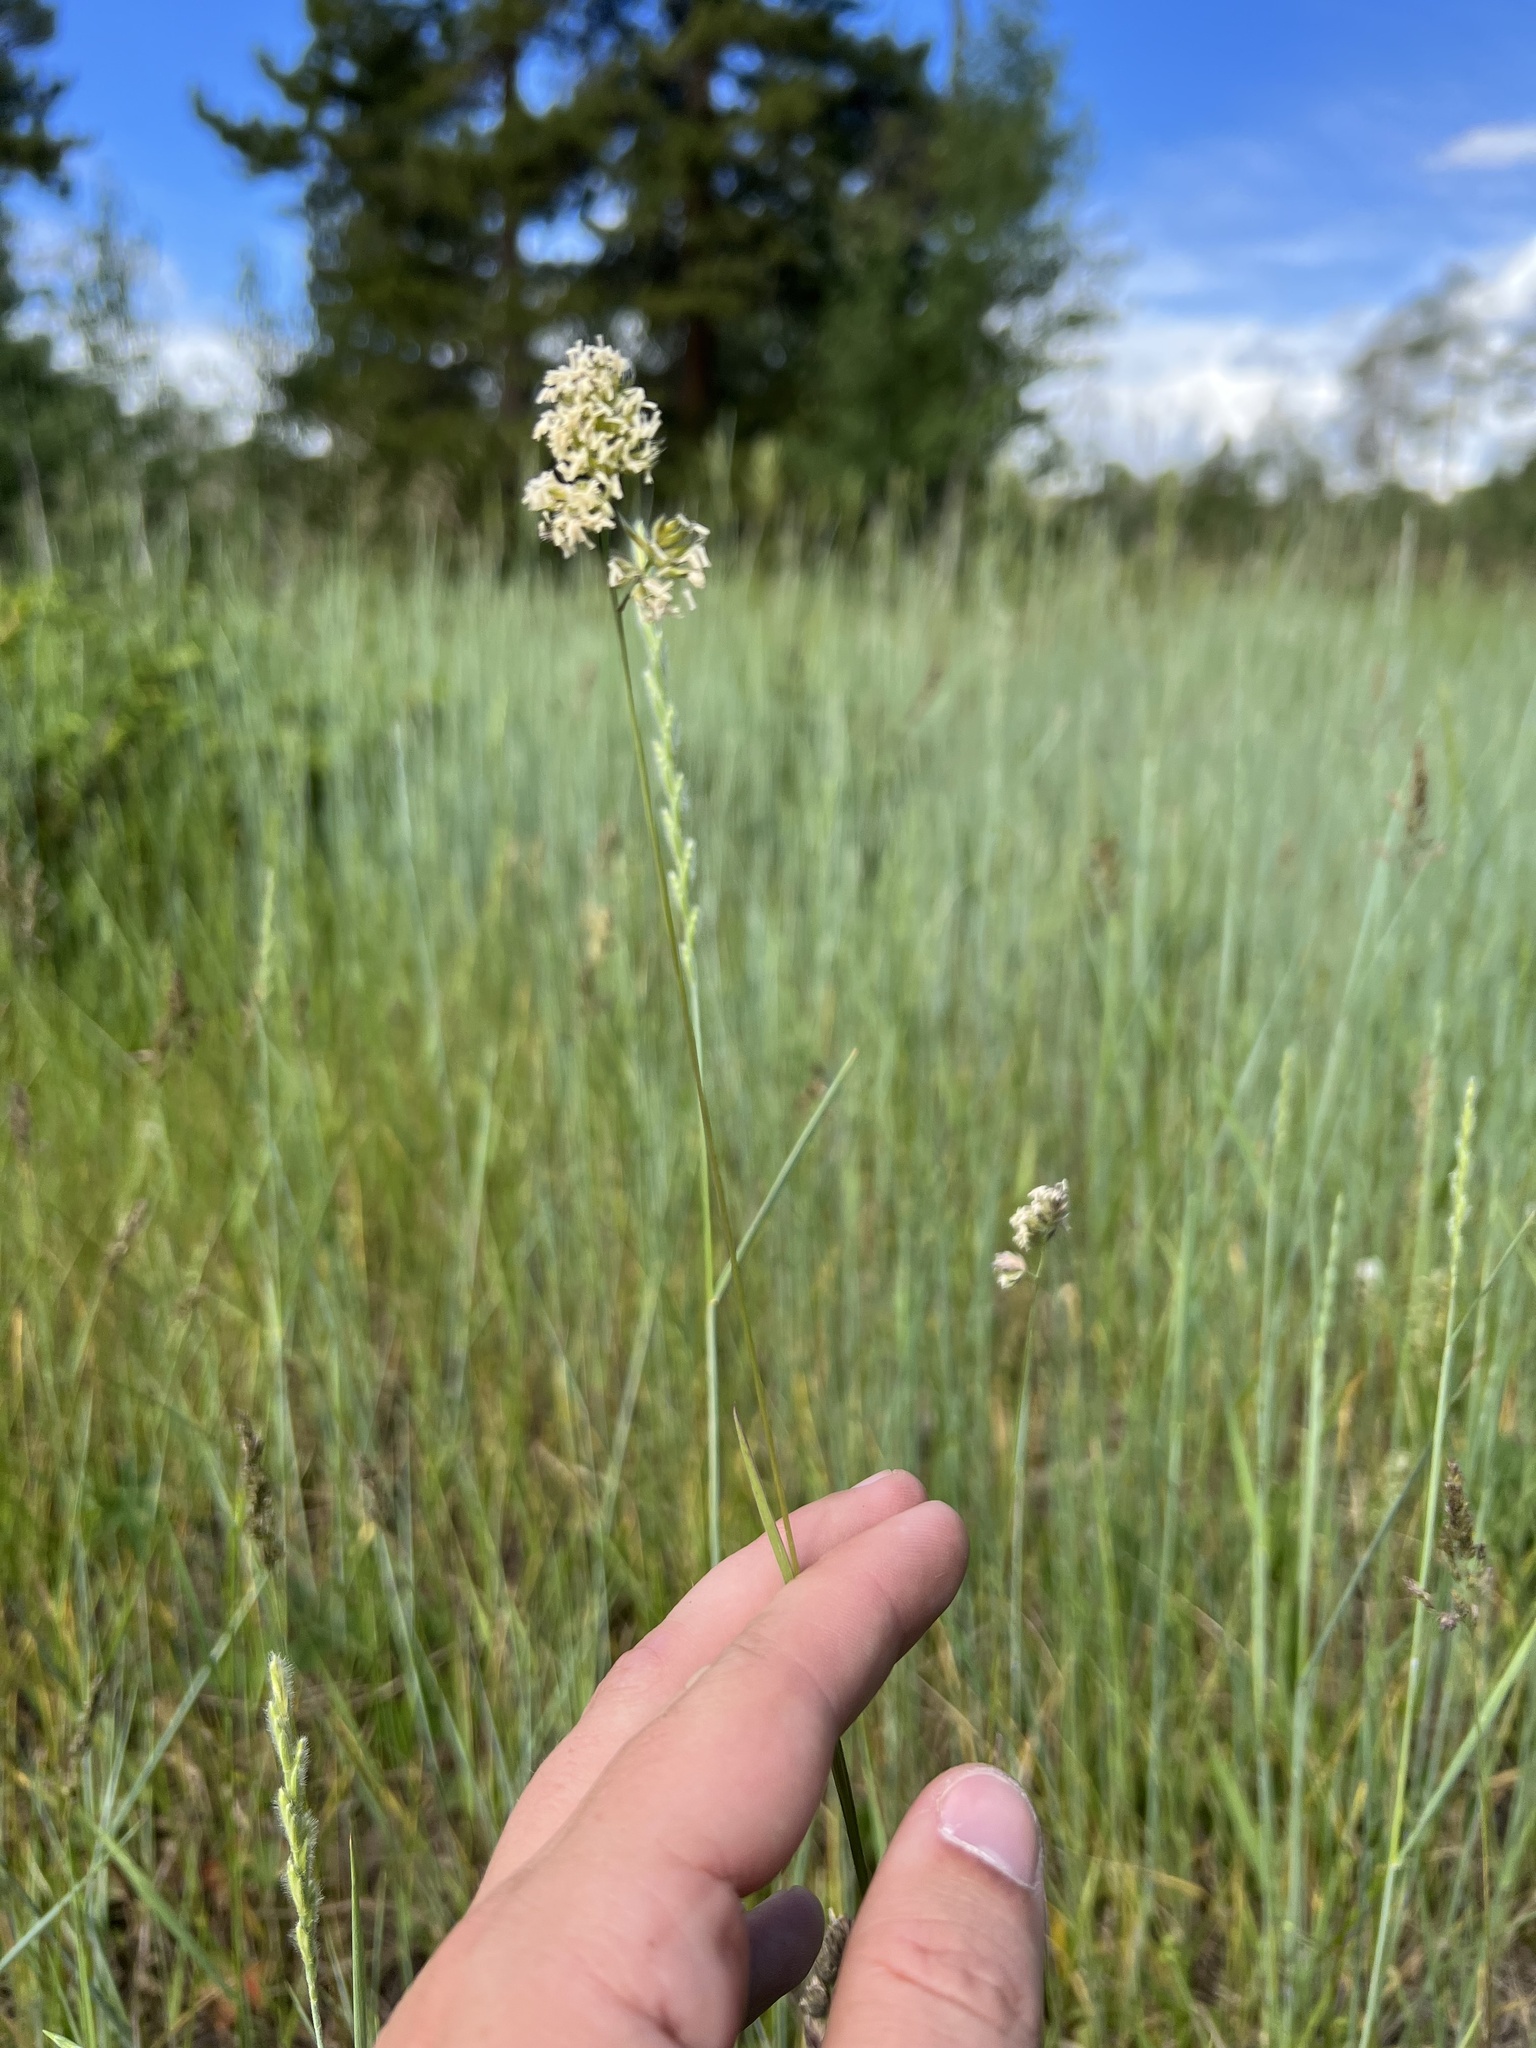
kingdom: Plantae
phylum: Tracheophyta
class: Liliopsida
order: Poales
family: Poaceae
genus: Dactylis
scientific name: Dactylis glomerata
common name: Orchardgrass
